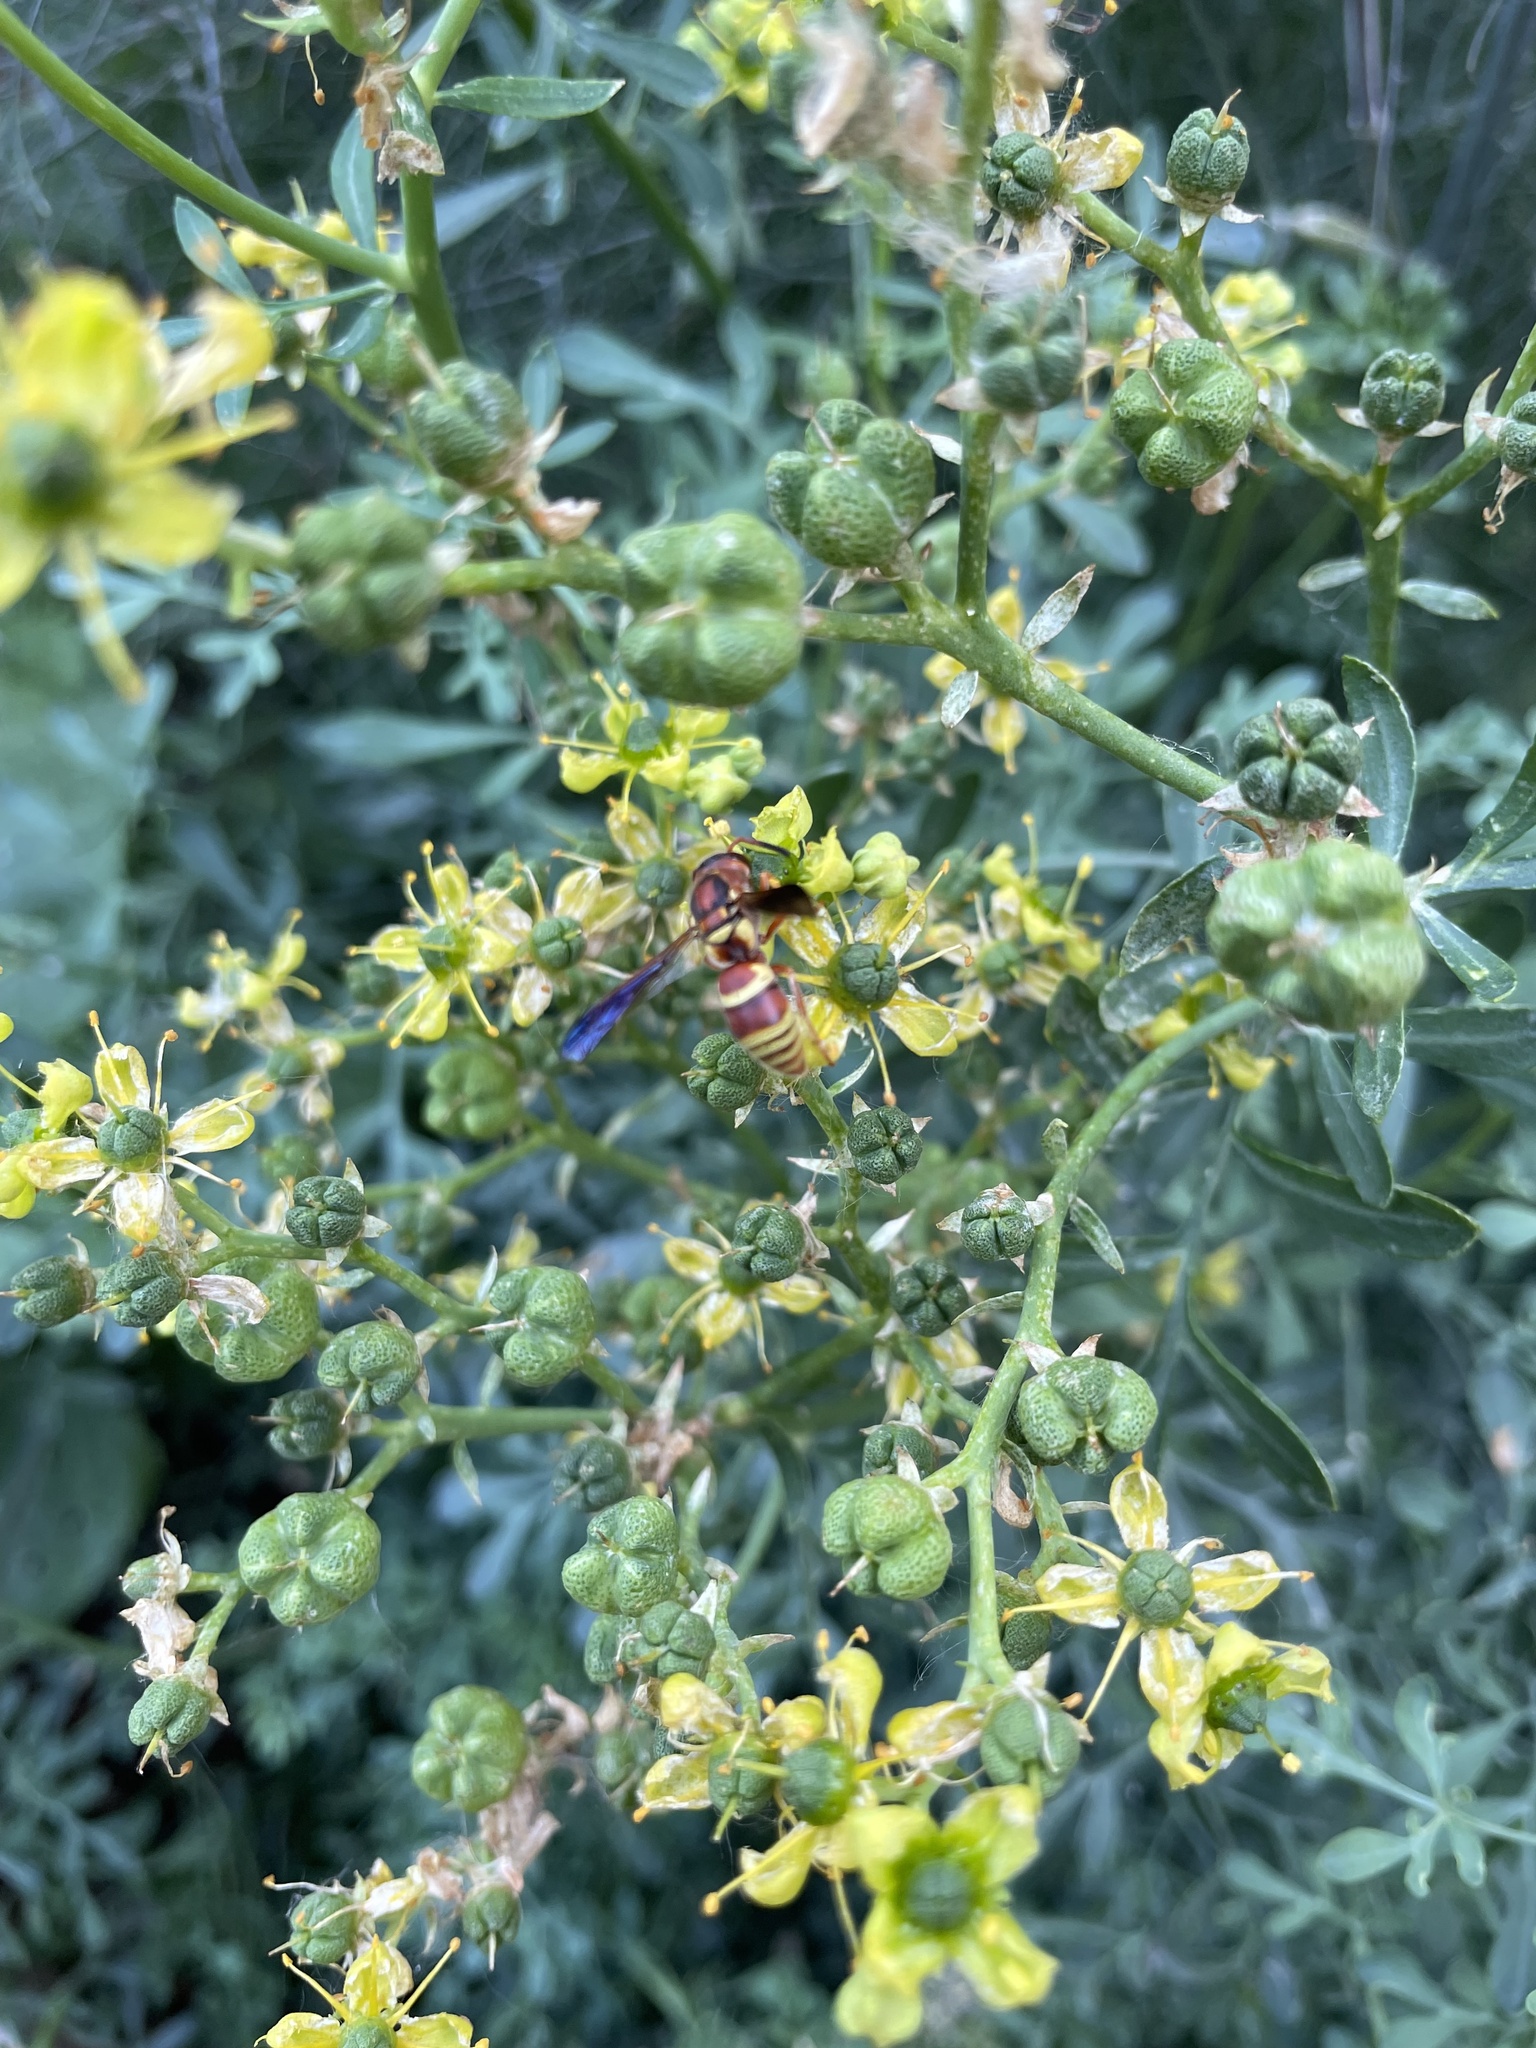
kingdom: Animalia
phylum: Arthropoda
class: Insecta
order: Hymenoptera
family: Eumenidae
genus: Euodynerus
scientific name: Euodynerus pratensis
